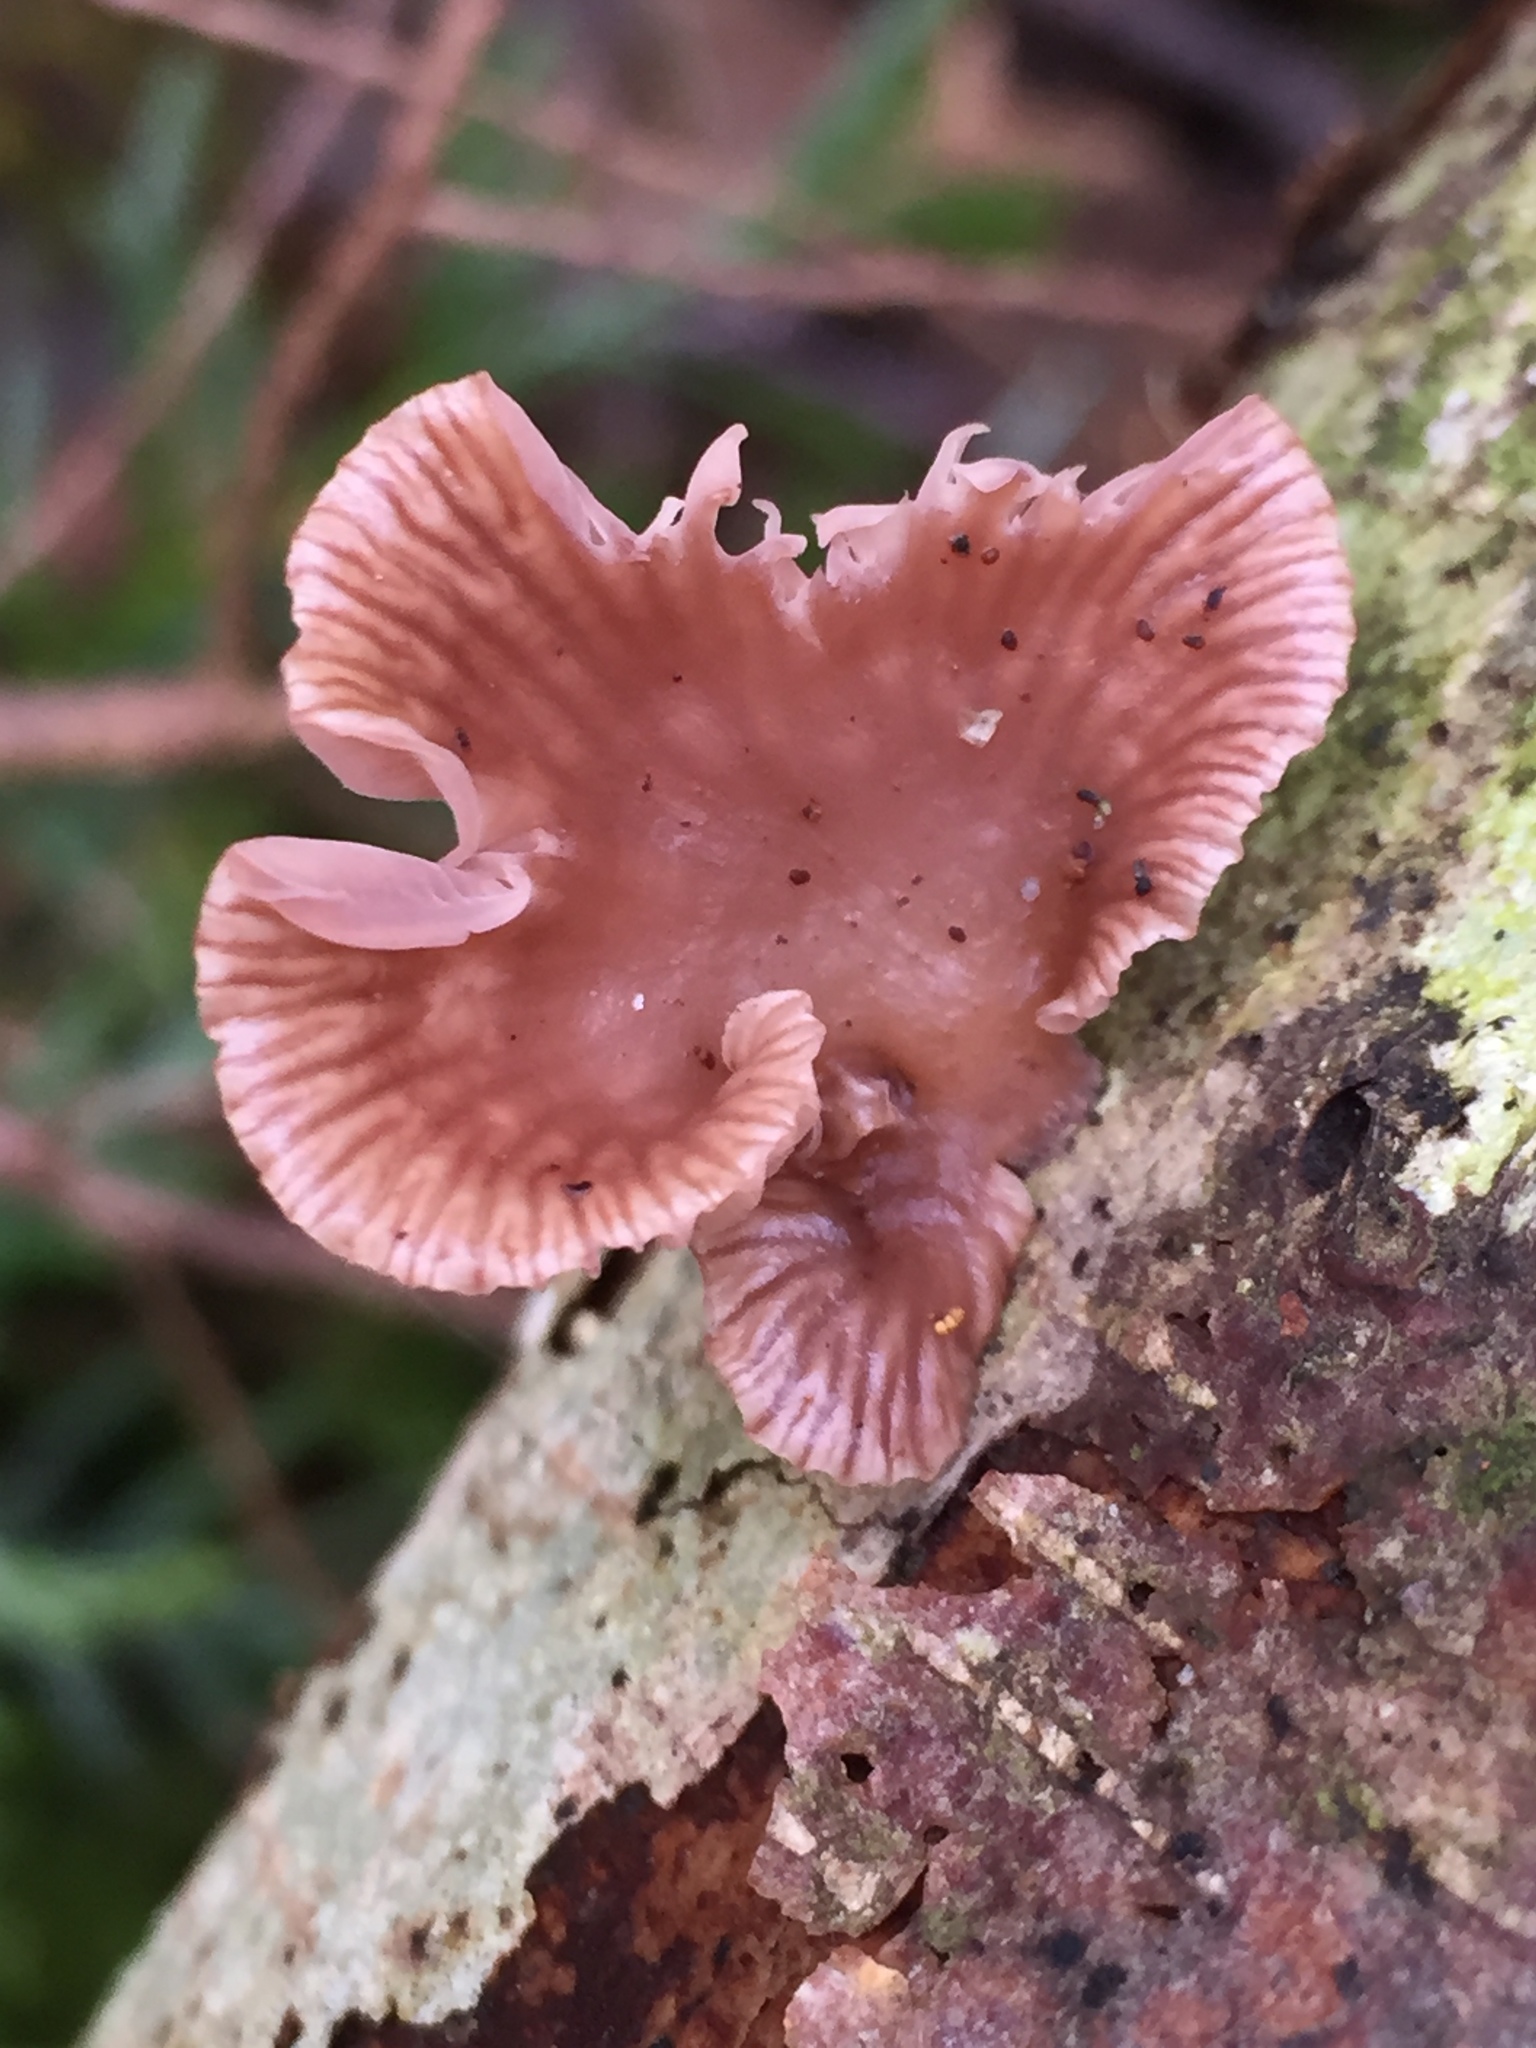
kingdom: Fungi
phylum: Basidiomycota
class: Agaricomycetes
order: Agaricales
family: Mycenaceae
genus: Panellus
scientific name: Panellus longinquus
